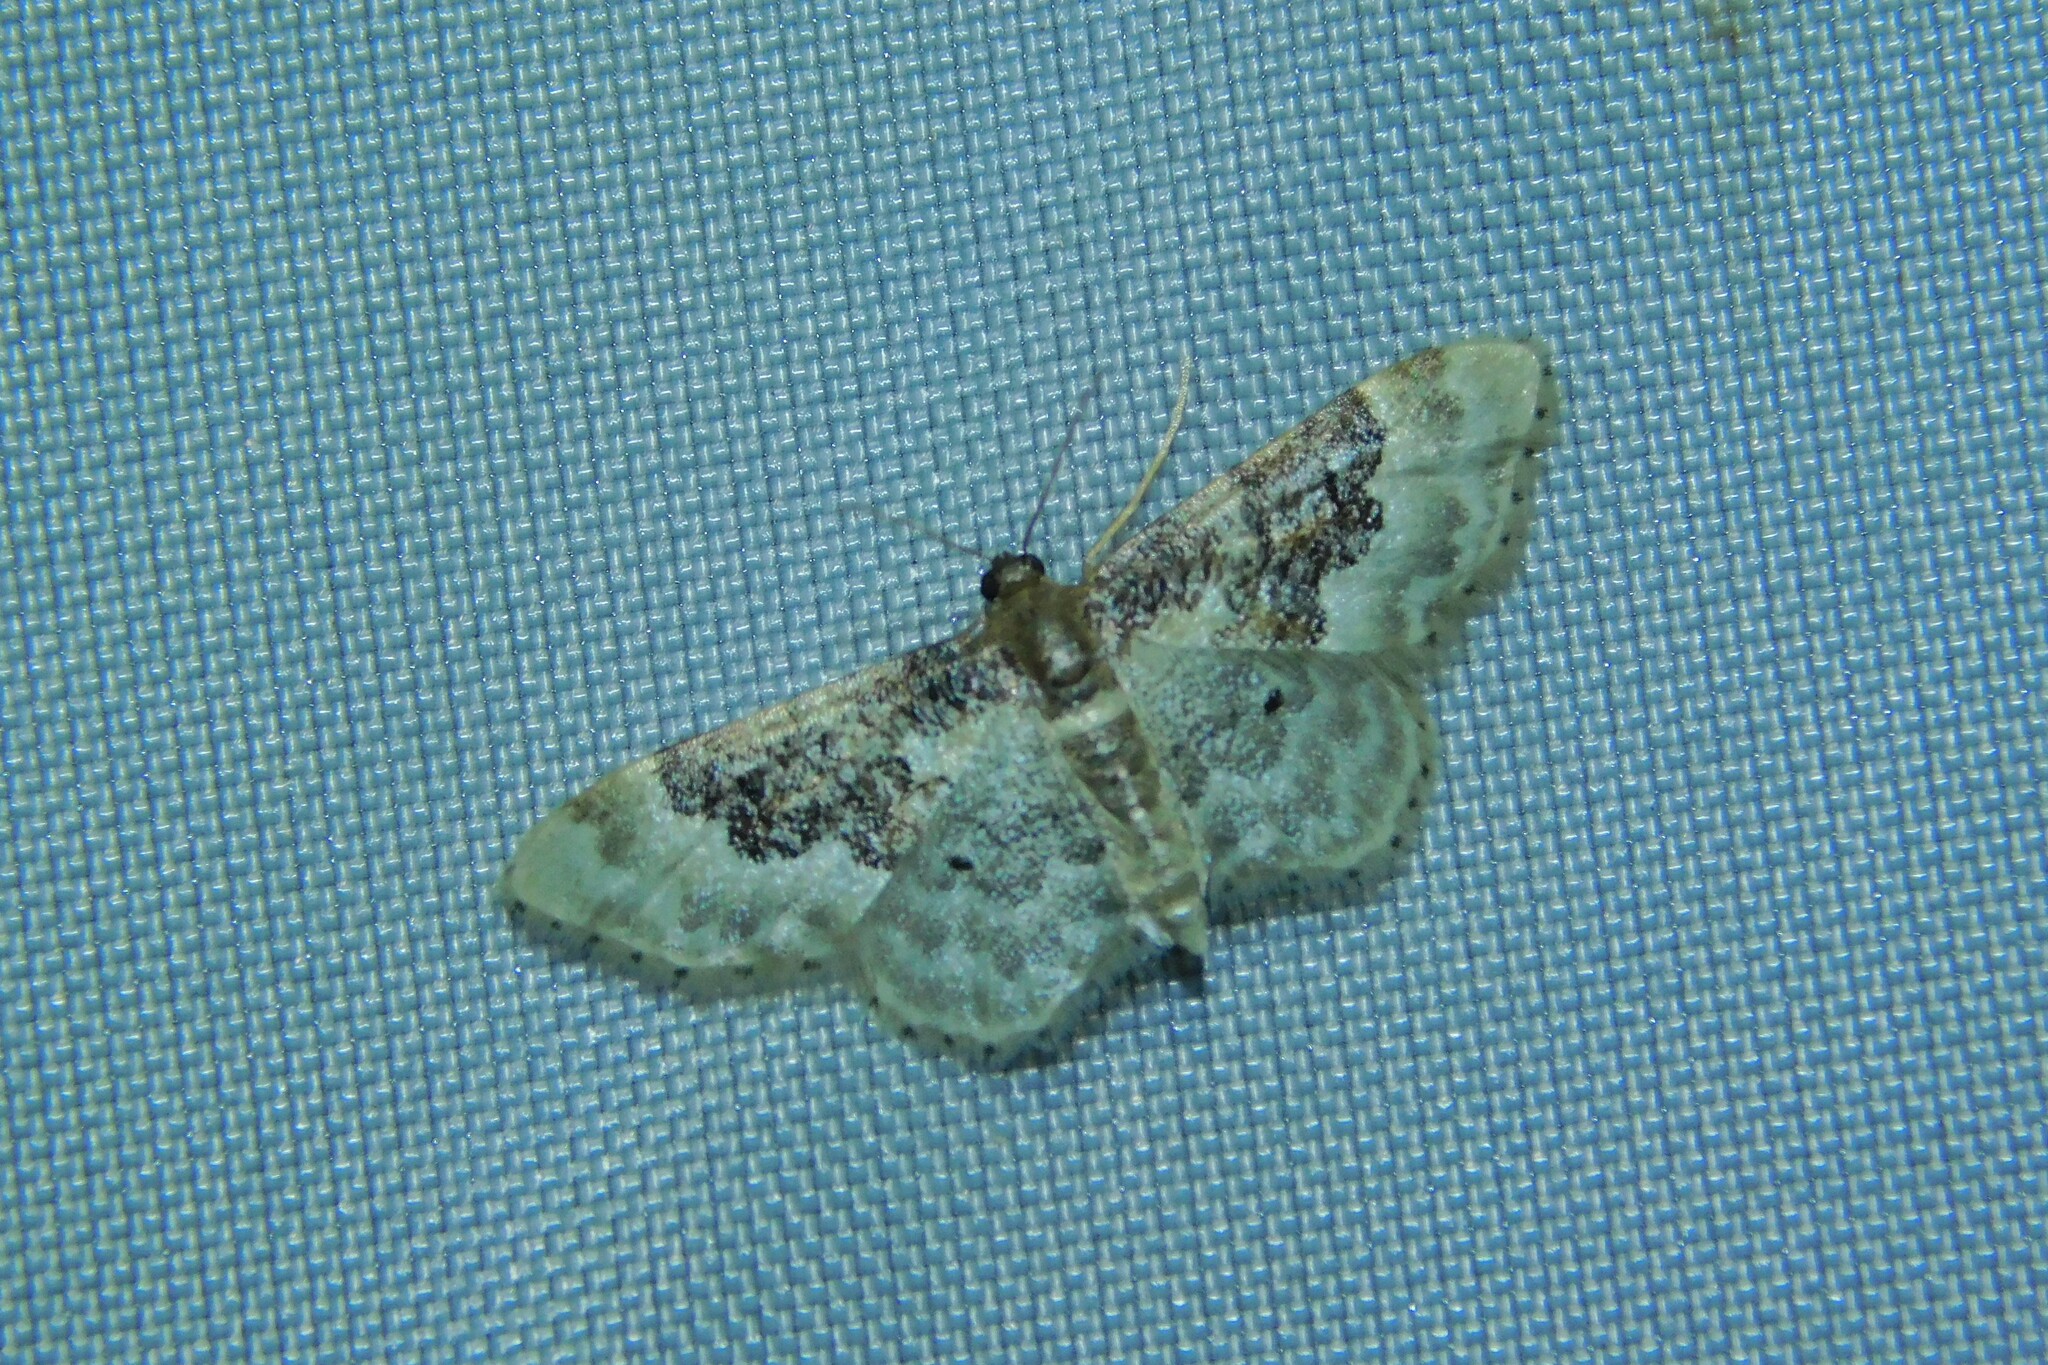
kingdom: Animalia
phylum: Arthropoda
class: Insecta
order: Lepidoptera
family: Geometridae
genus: Idaea
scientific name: Idaea rusticata
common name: Least carpet
